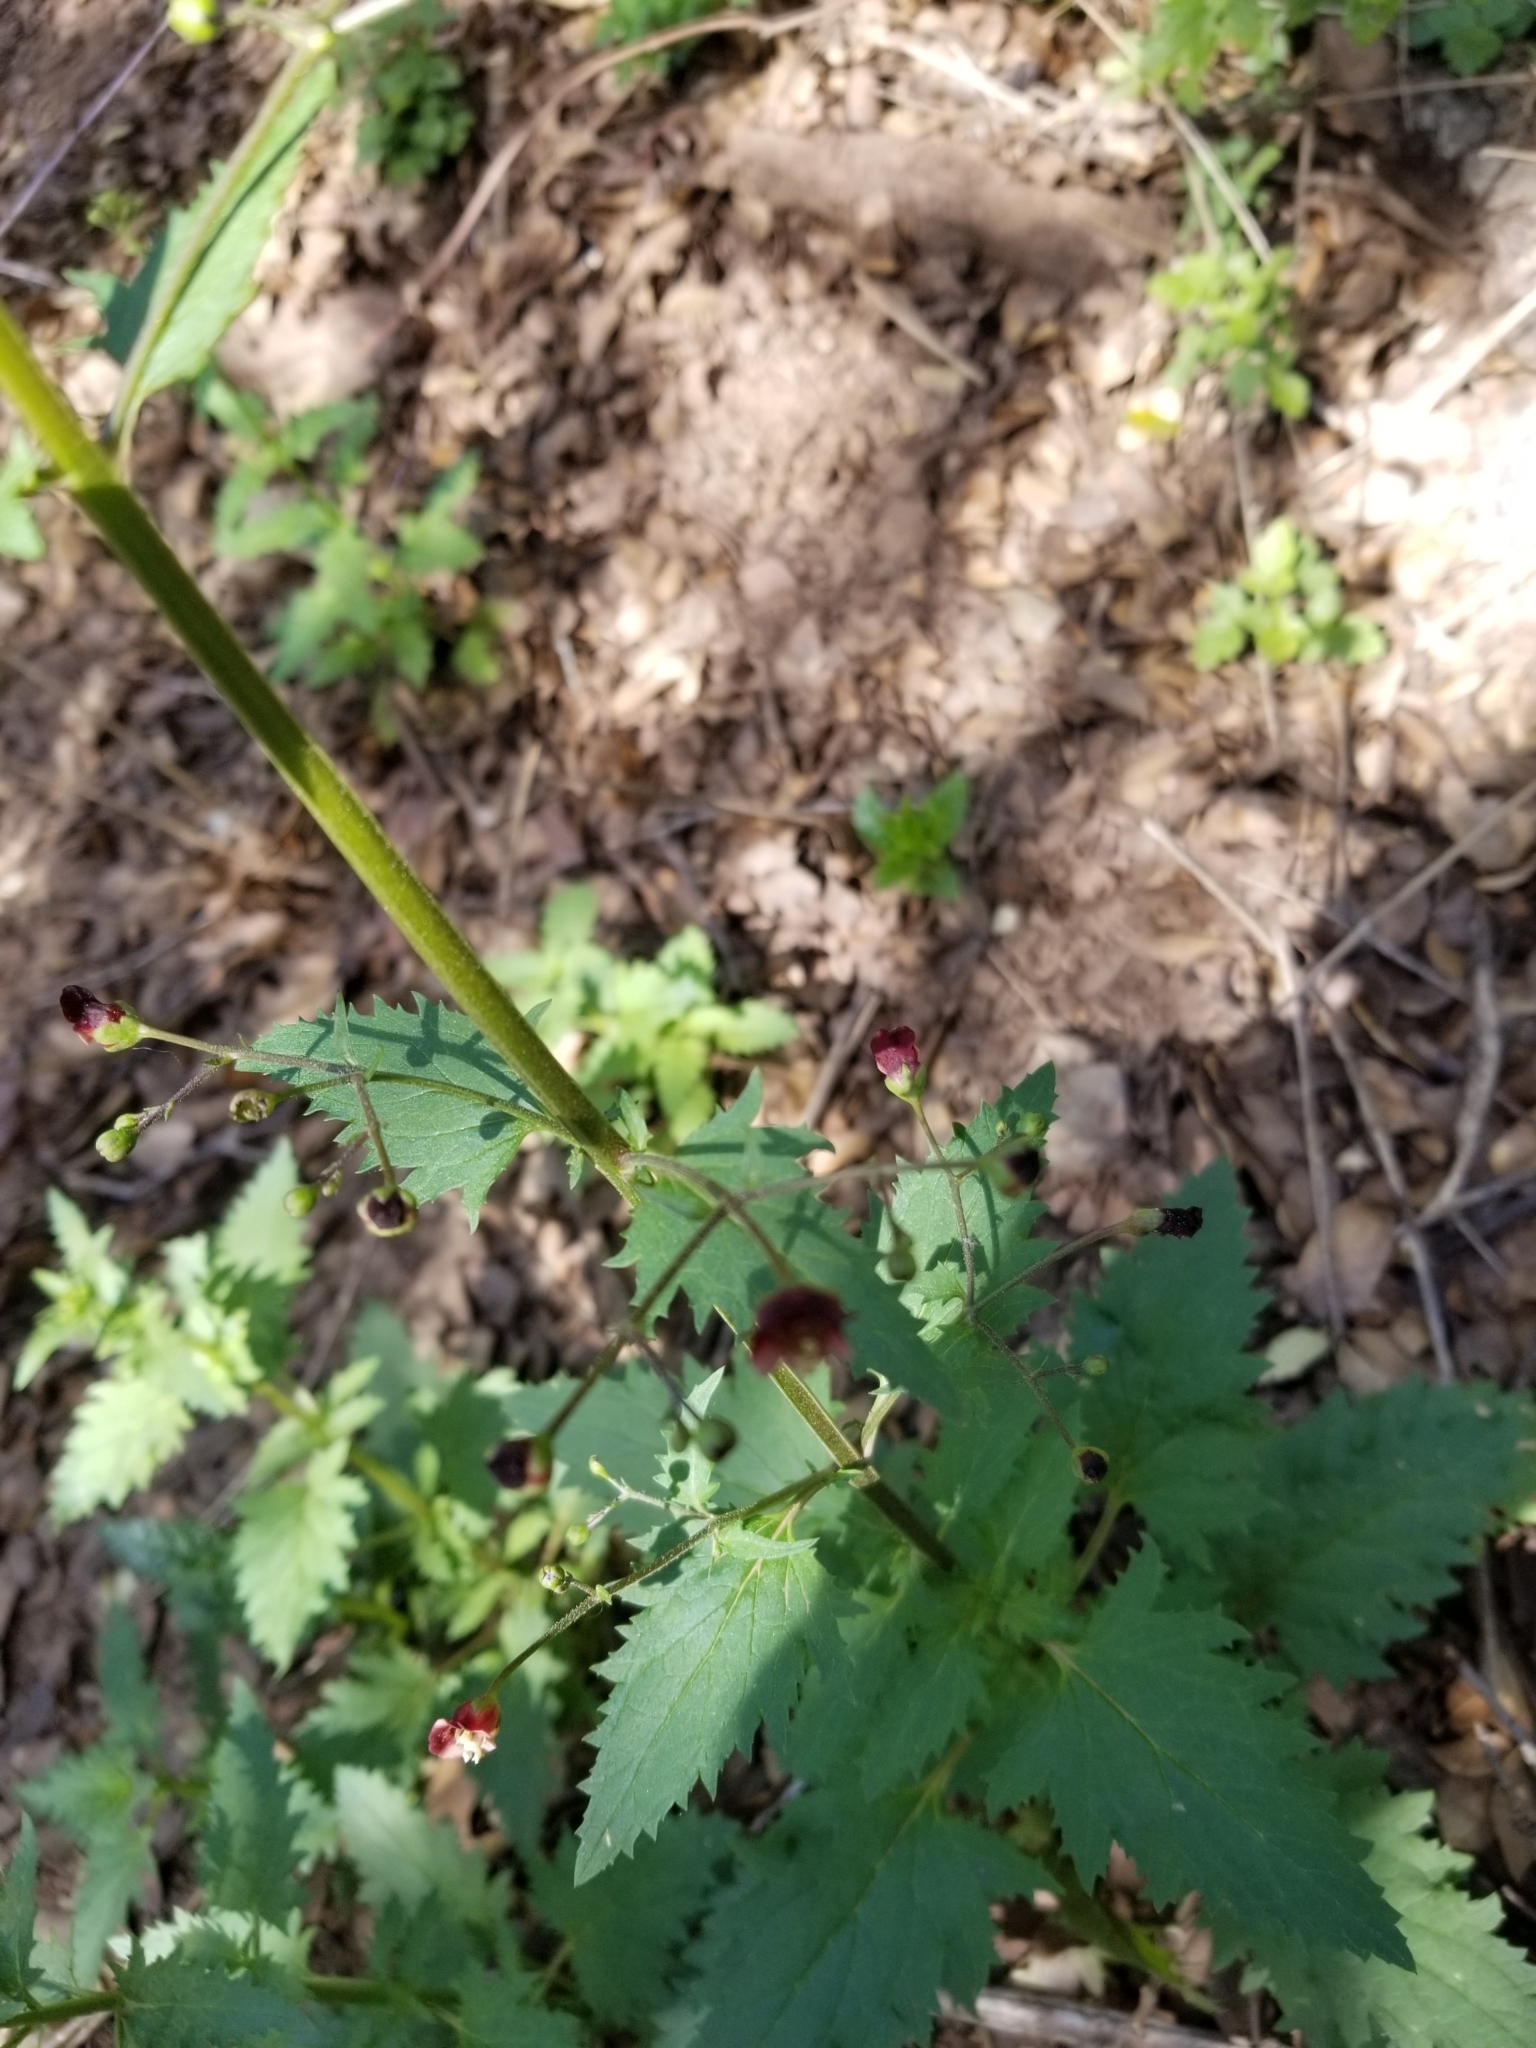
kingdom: Plantae
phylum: Tracheophyta
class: Magnoliopsida
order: Lamiales
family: Scrophulariaceae
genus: Scrophularia
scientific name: Scrophularia californica
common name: California figwort
